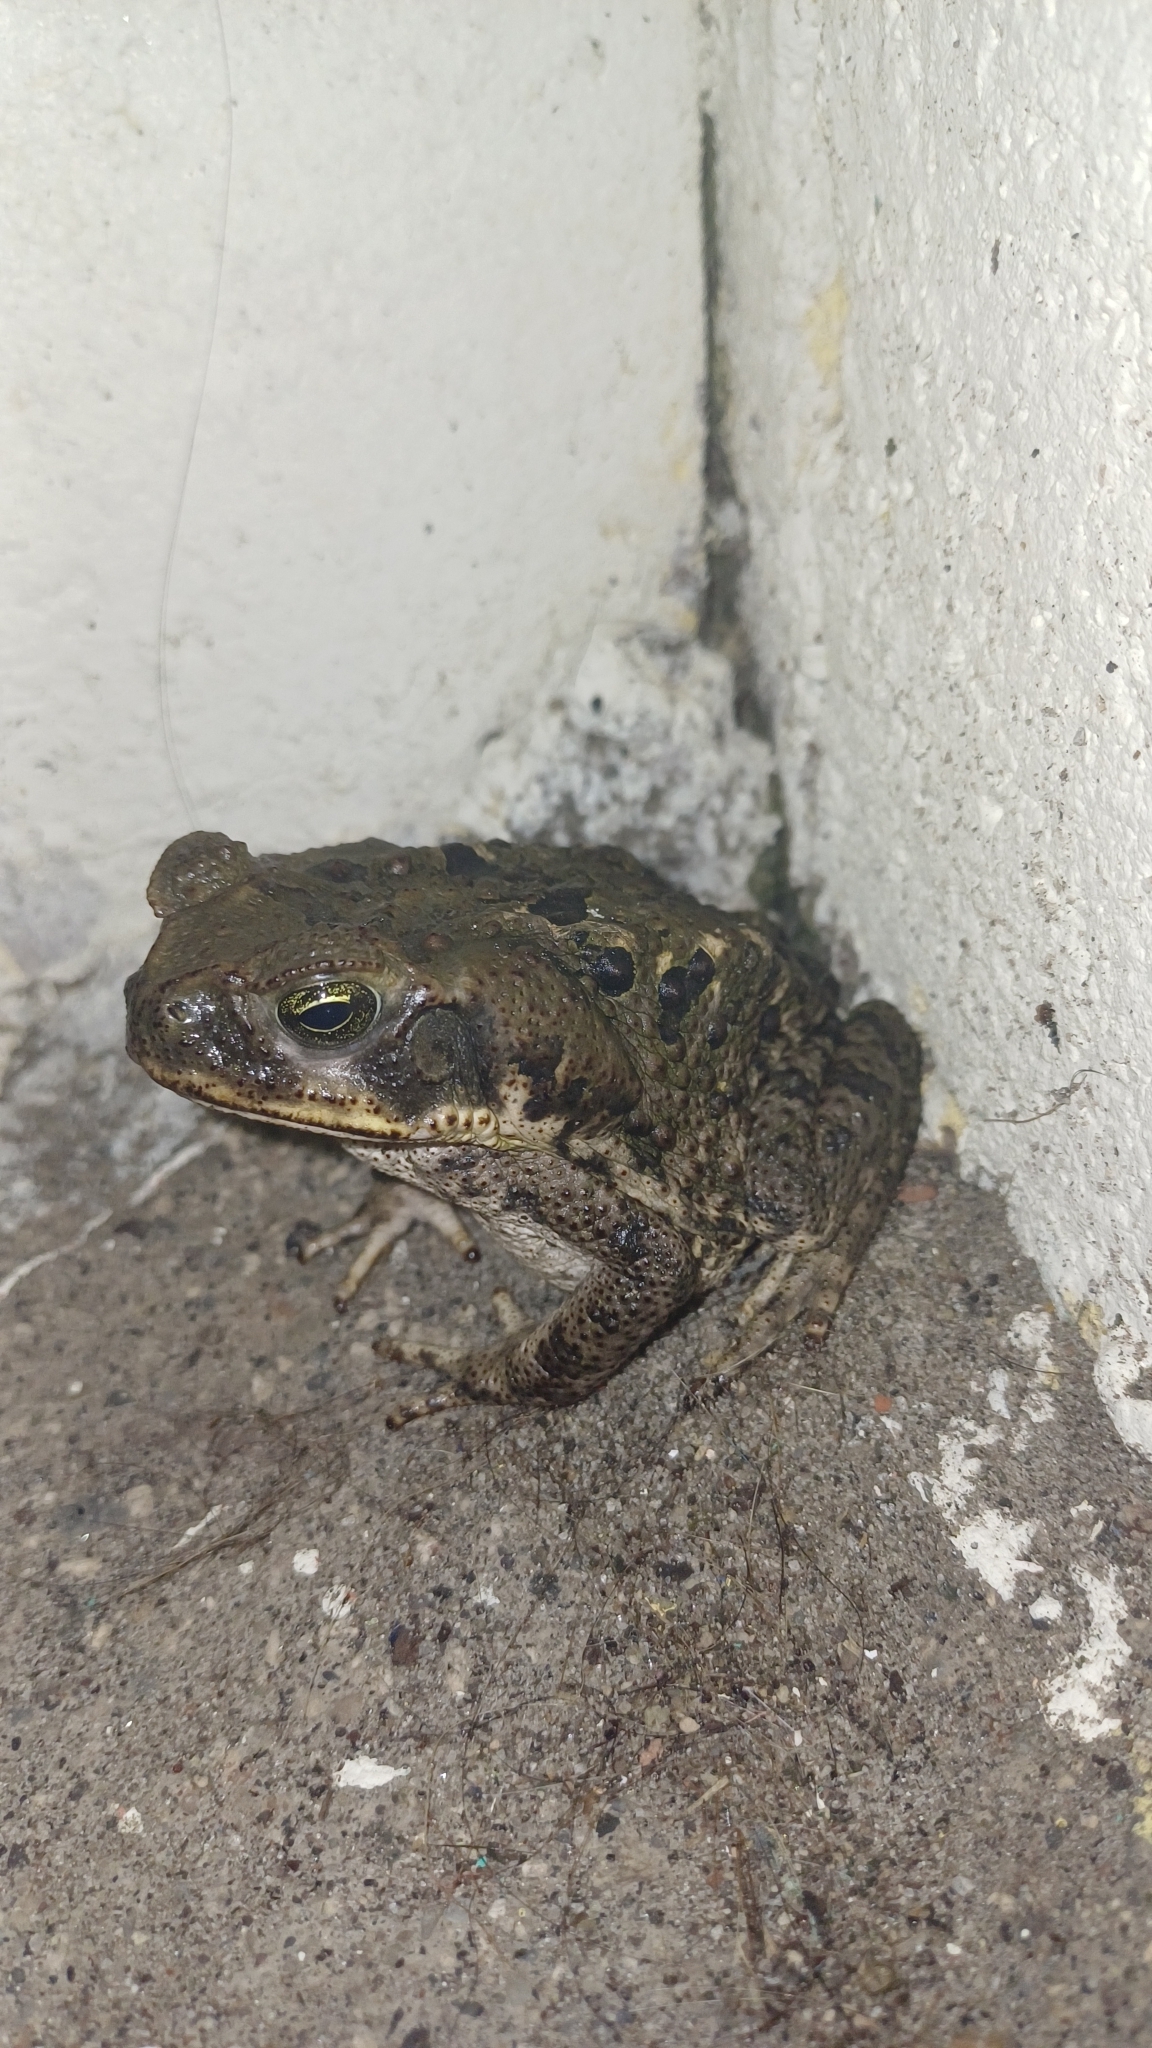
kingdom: Animalia
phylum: Chordata
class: Amphibia
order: Anura
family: Bufonidae
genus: Rhinella
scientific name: Rhinella horribilis
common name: Mesoamerican cane toad
